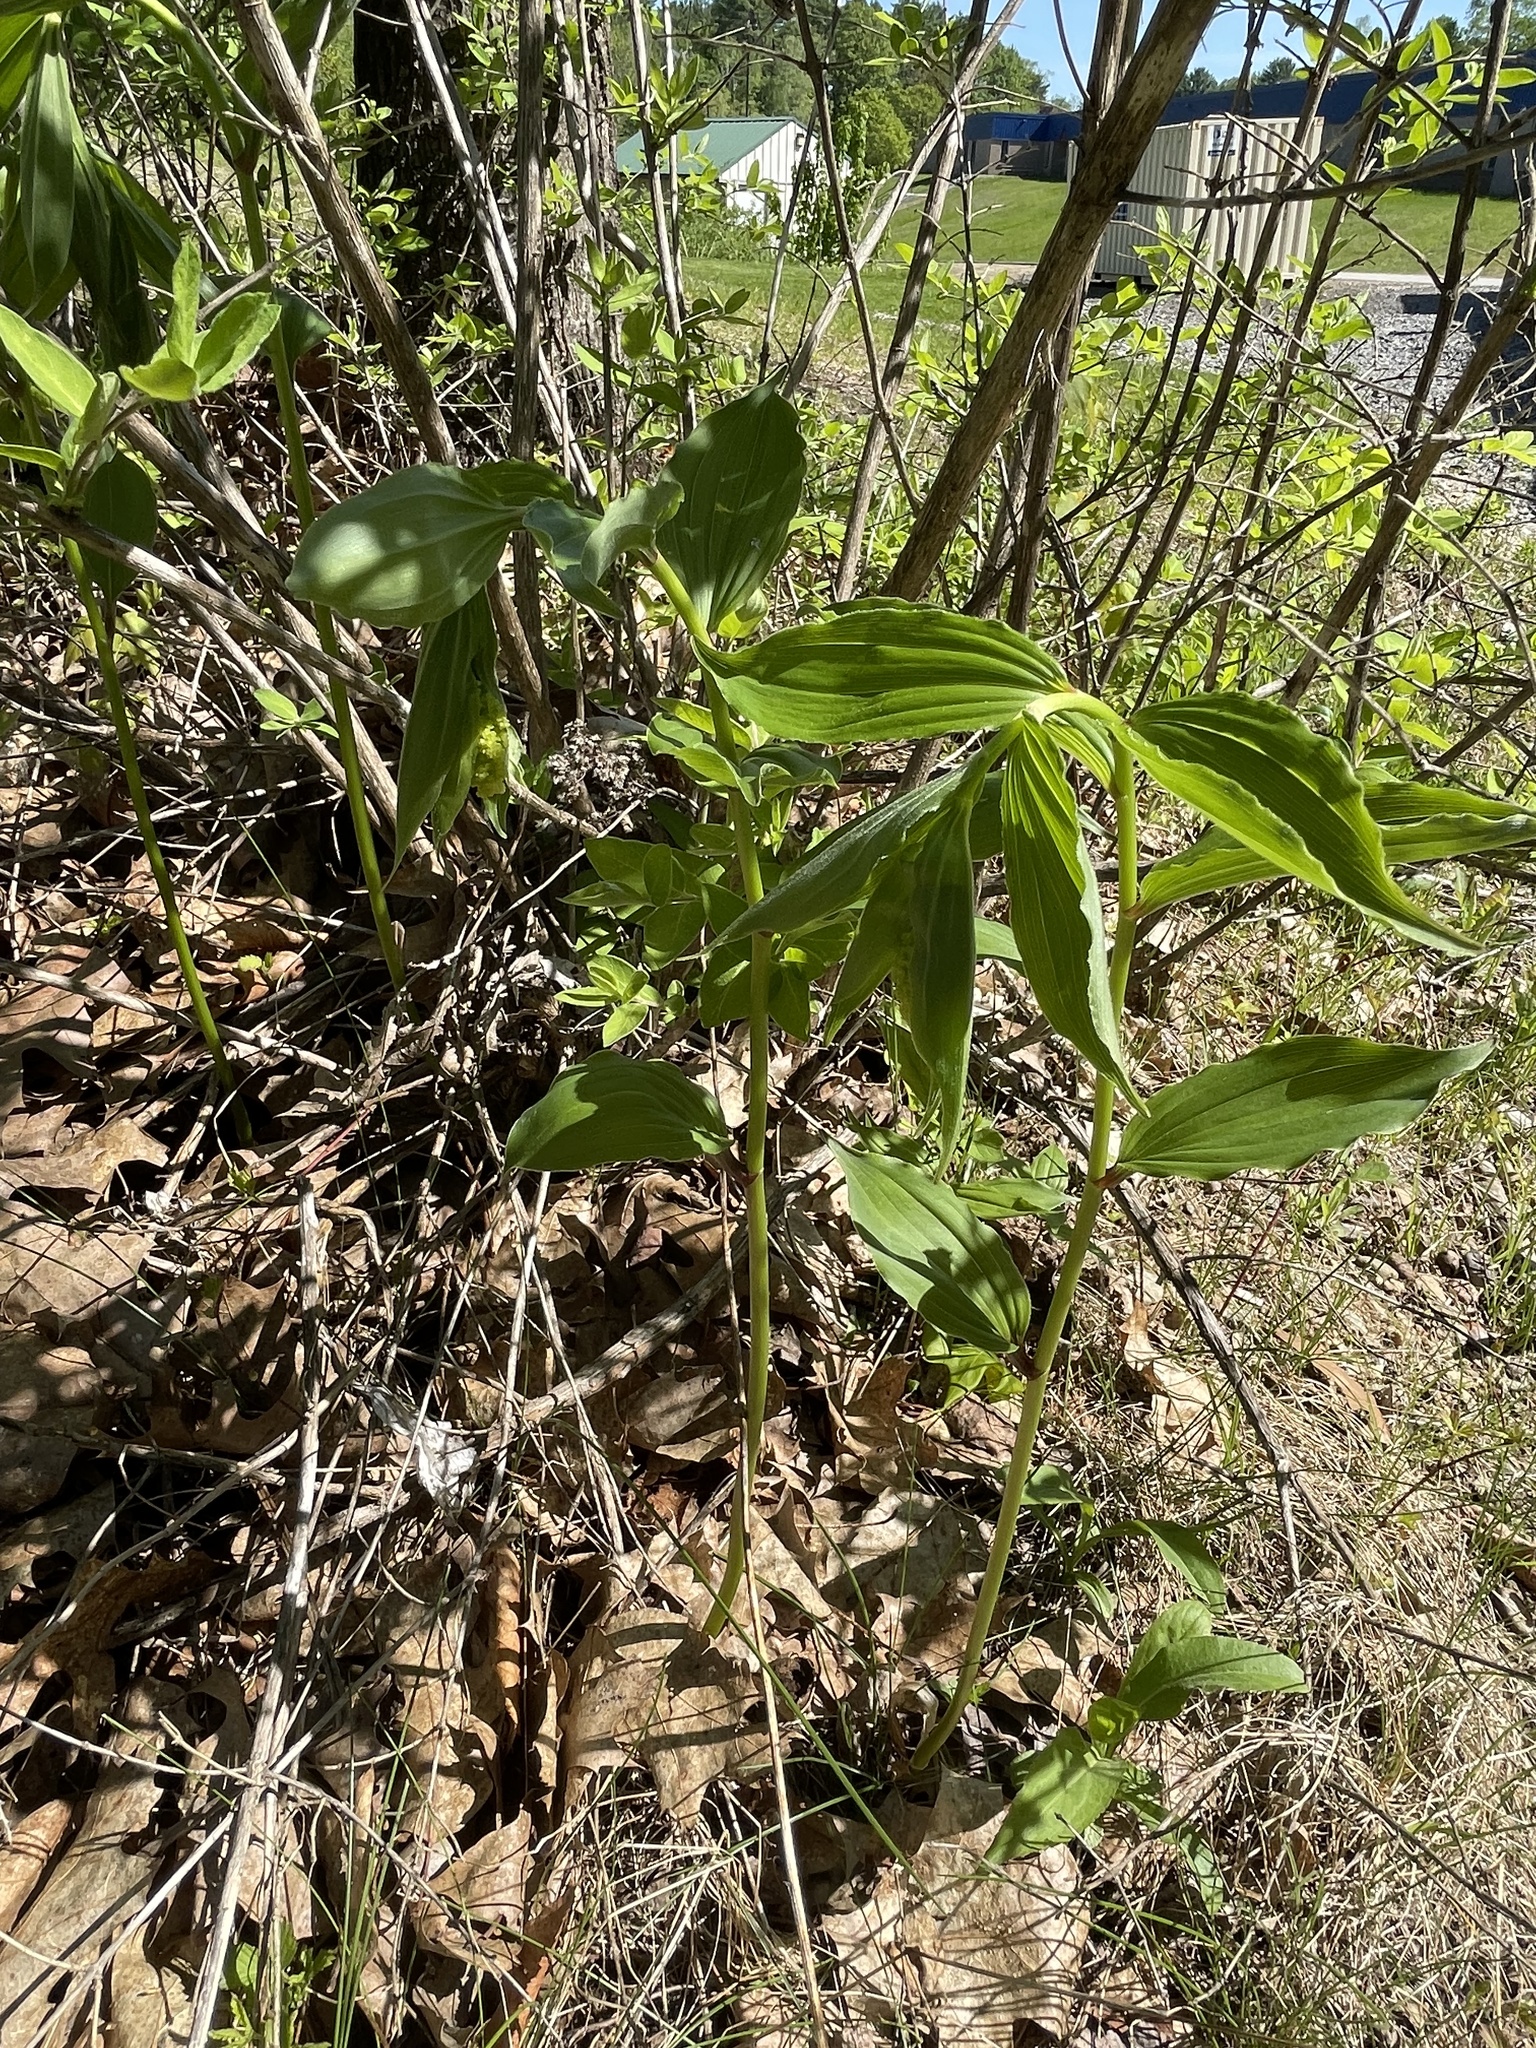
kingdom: Plantae
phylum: Tracheophyta
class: Liliopsida
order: Asparagales
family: Asparagaceae
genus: Maianthemum
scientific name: Maianthemum racemosum
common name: False spikenard
